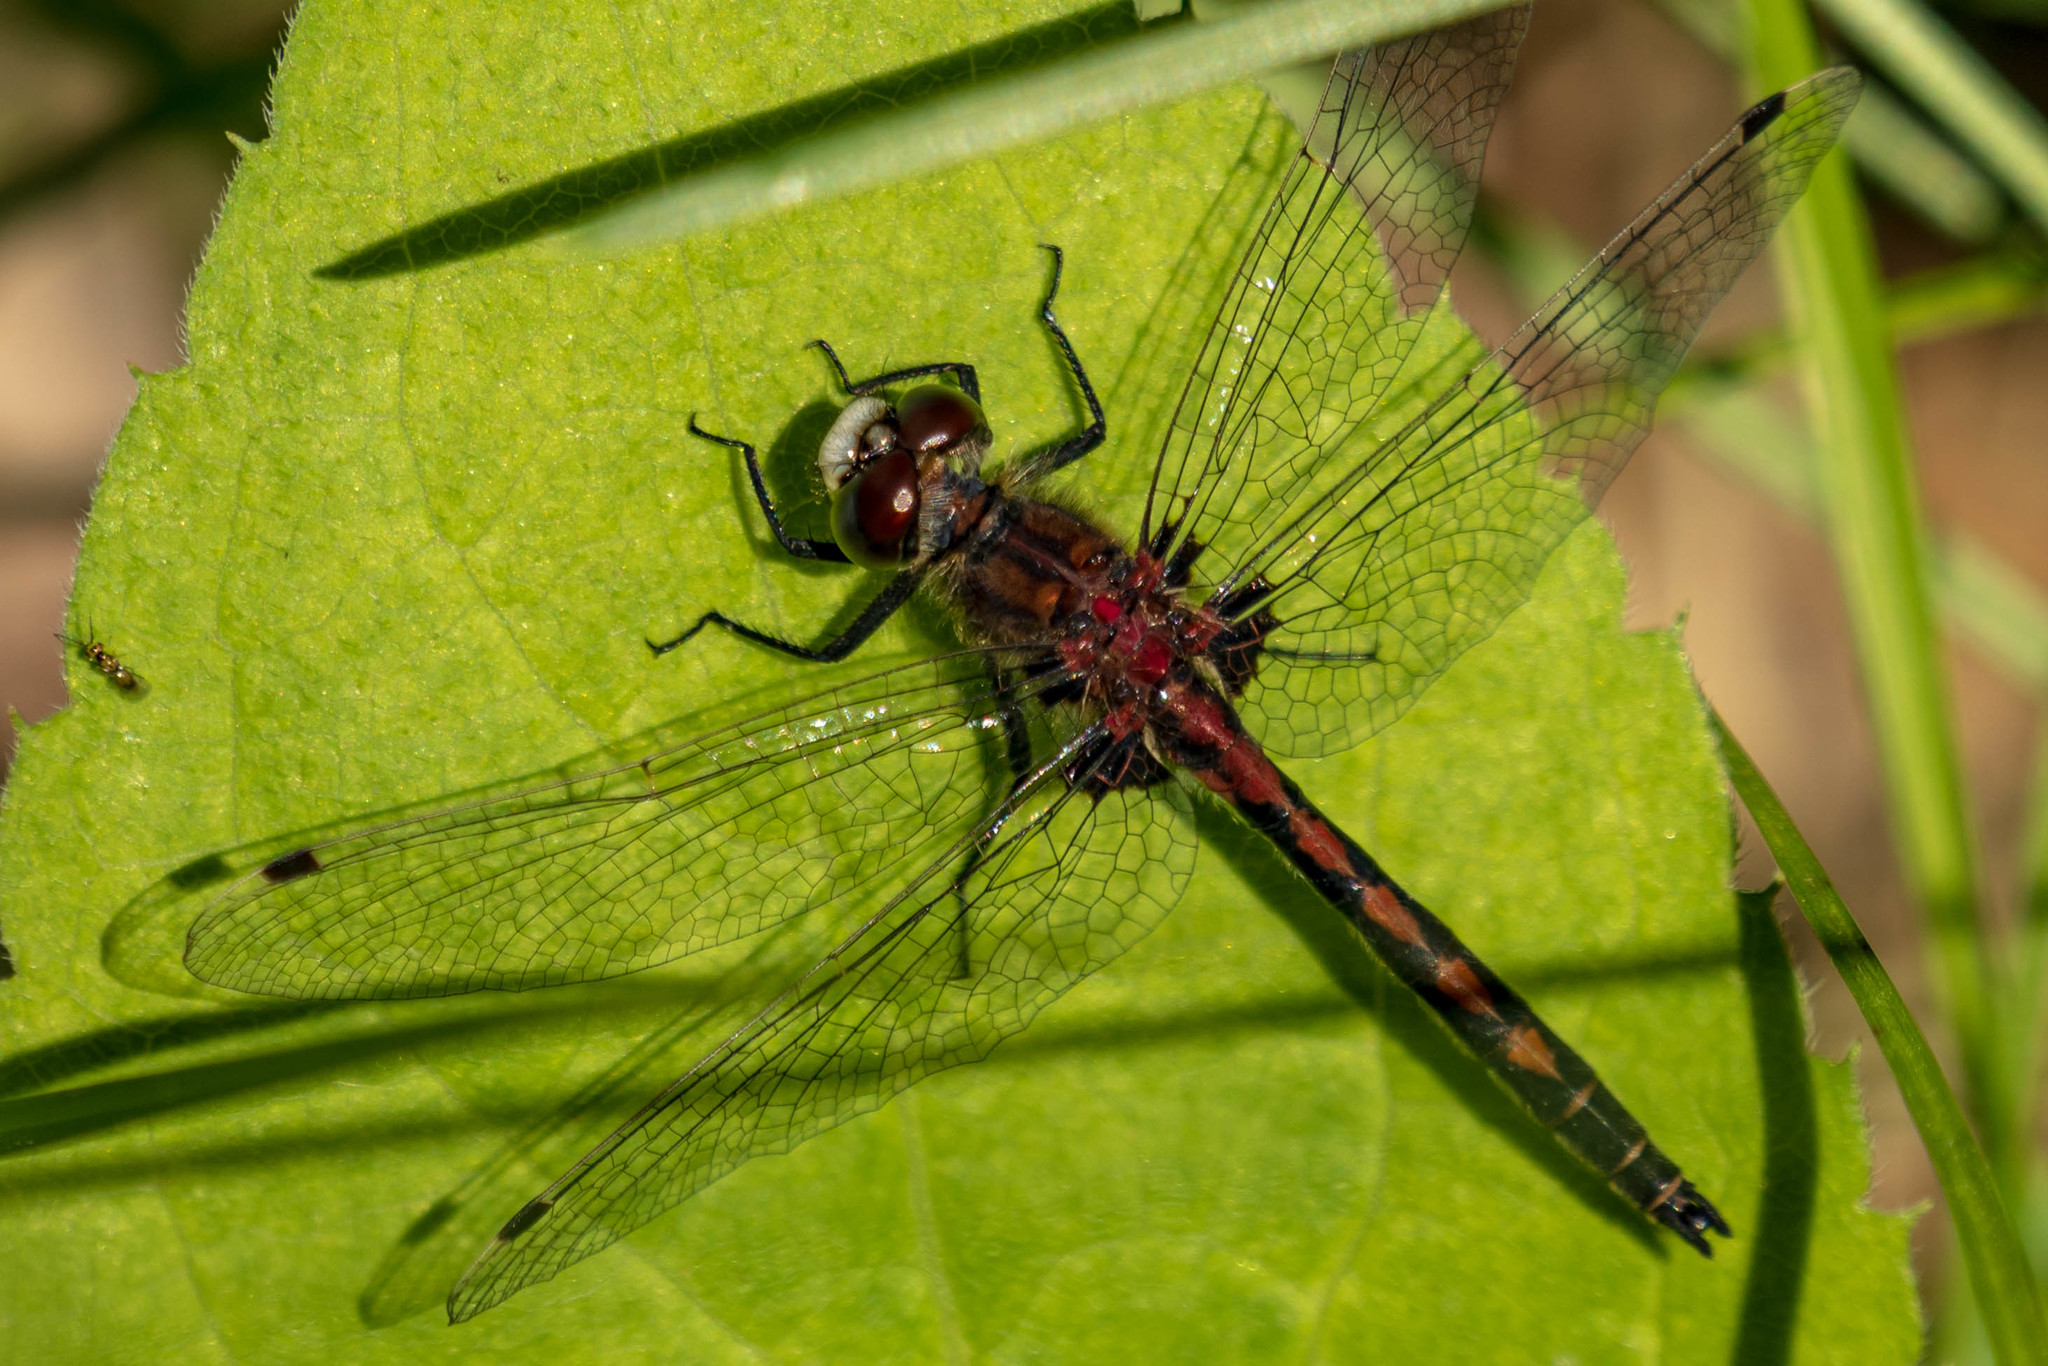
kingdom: Animalia
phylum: Arthropoda
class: Insecta
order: Odonata
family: Libellulidae
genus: Leucorrhinia
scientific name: Leucorrhinia hudsonica
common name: Hudsonian whiteface
